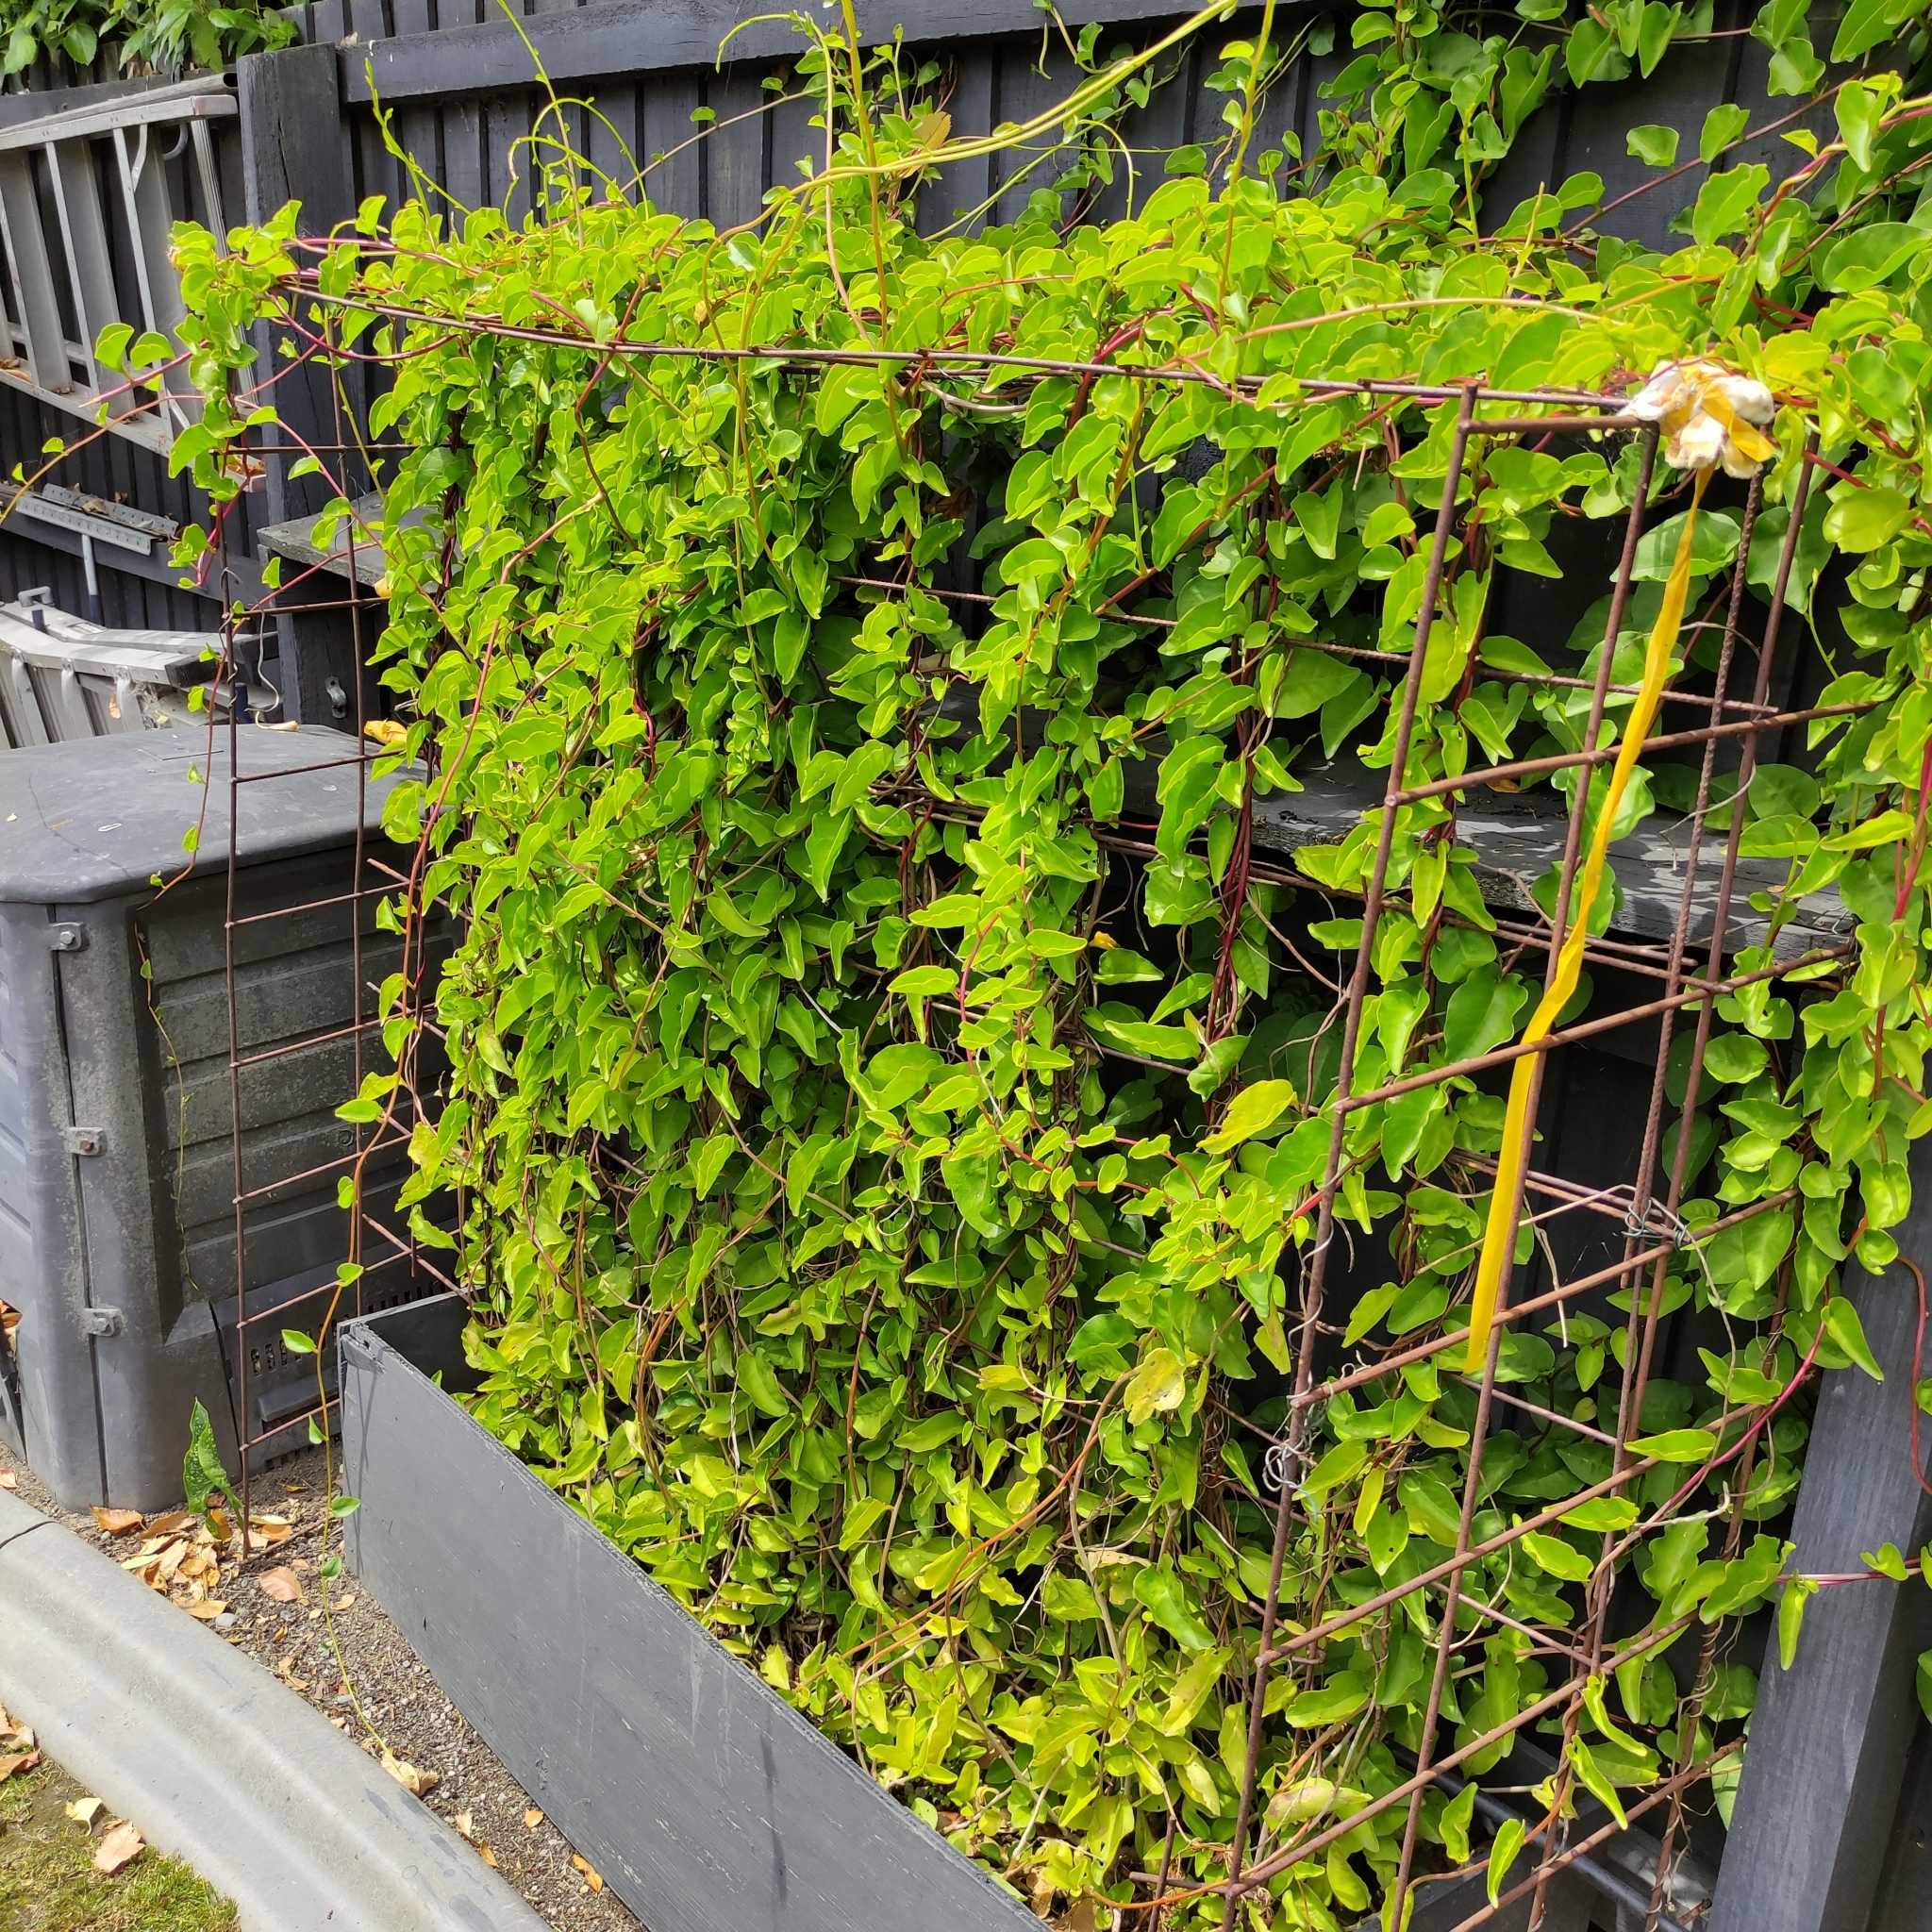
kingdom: Plantae
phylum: Tracheophyta
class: Magnoliopsida
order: Caryophyllales
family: Basellaceae
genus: Anredera
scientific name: Anredera cordifolia
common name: Heartleaf madeiravine
